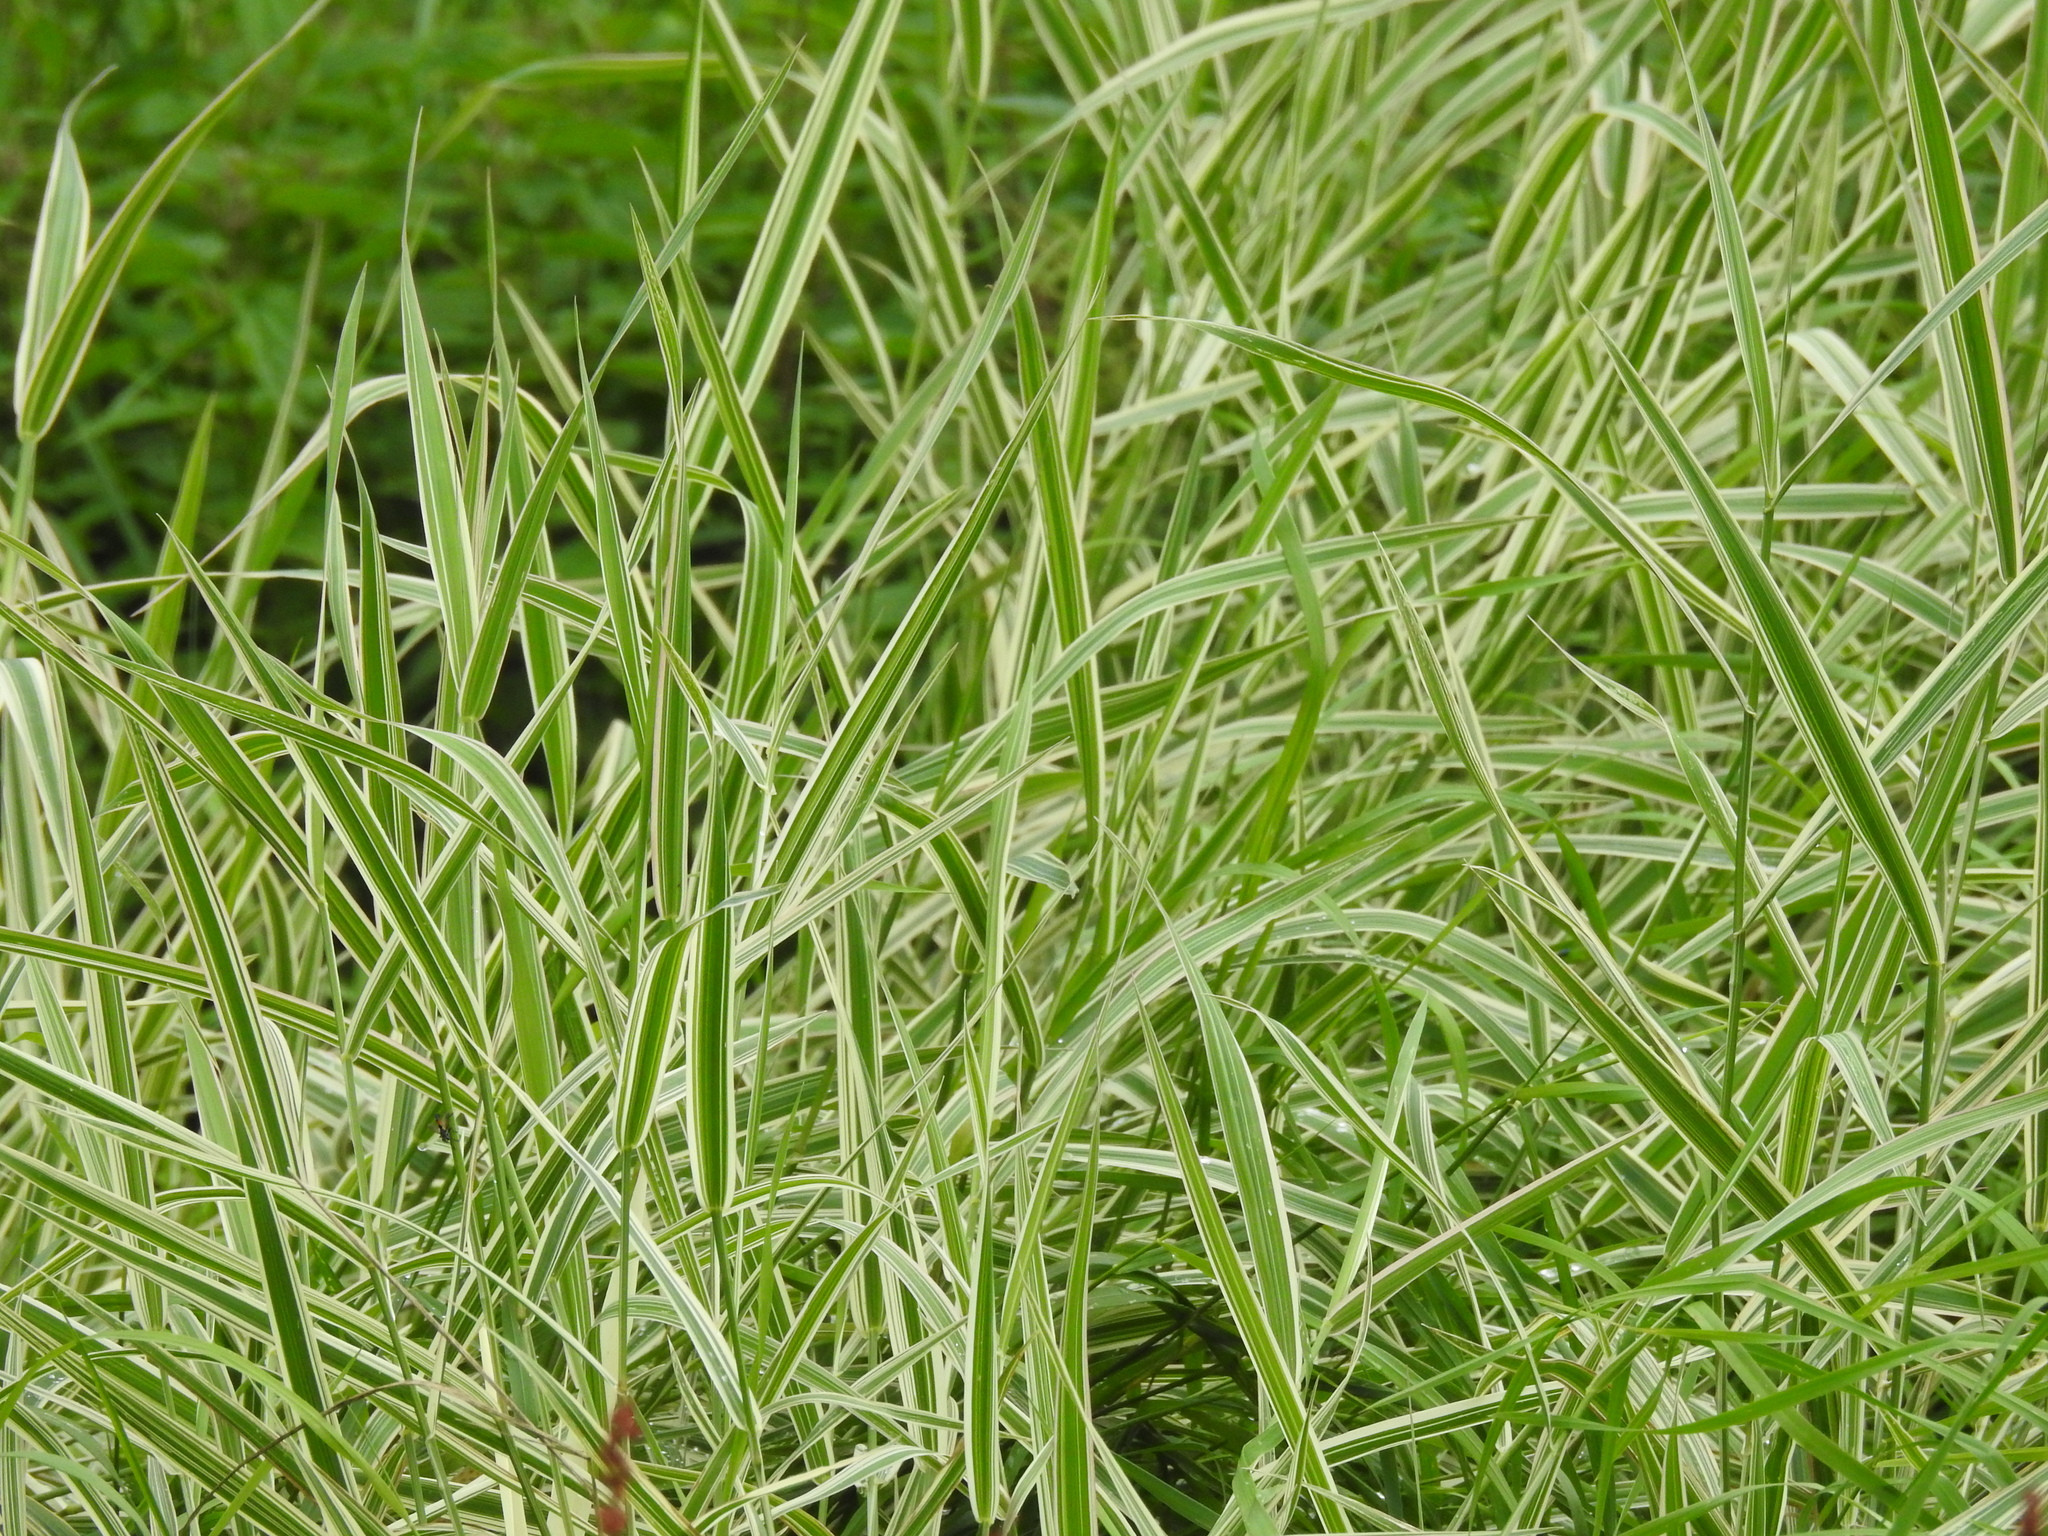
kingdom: Plantae
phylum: Tracheophyta
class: Liliopsida
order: Poales
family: Poaceae
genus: Phalaris
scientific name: Phalaris canariensis
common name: Annual canarygrass
